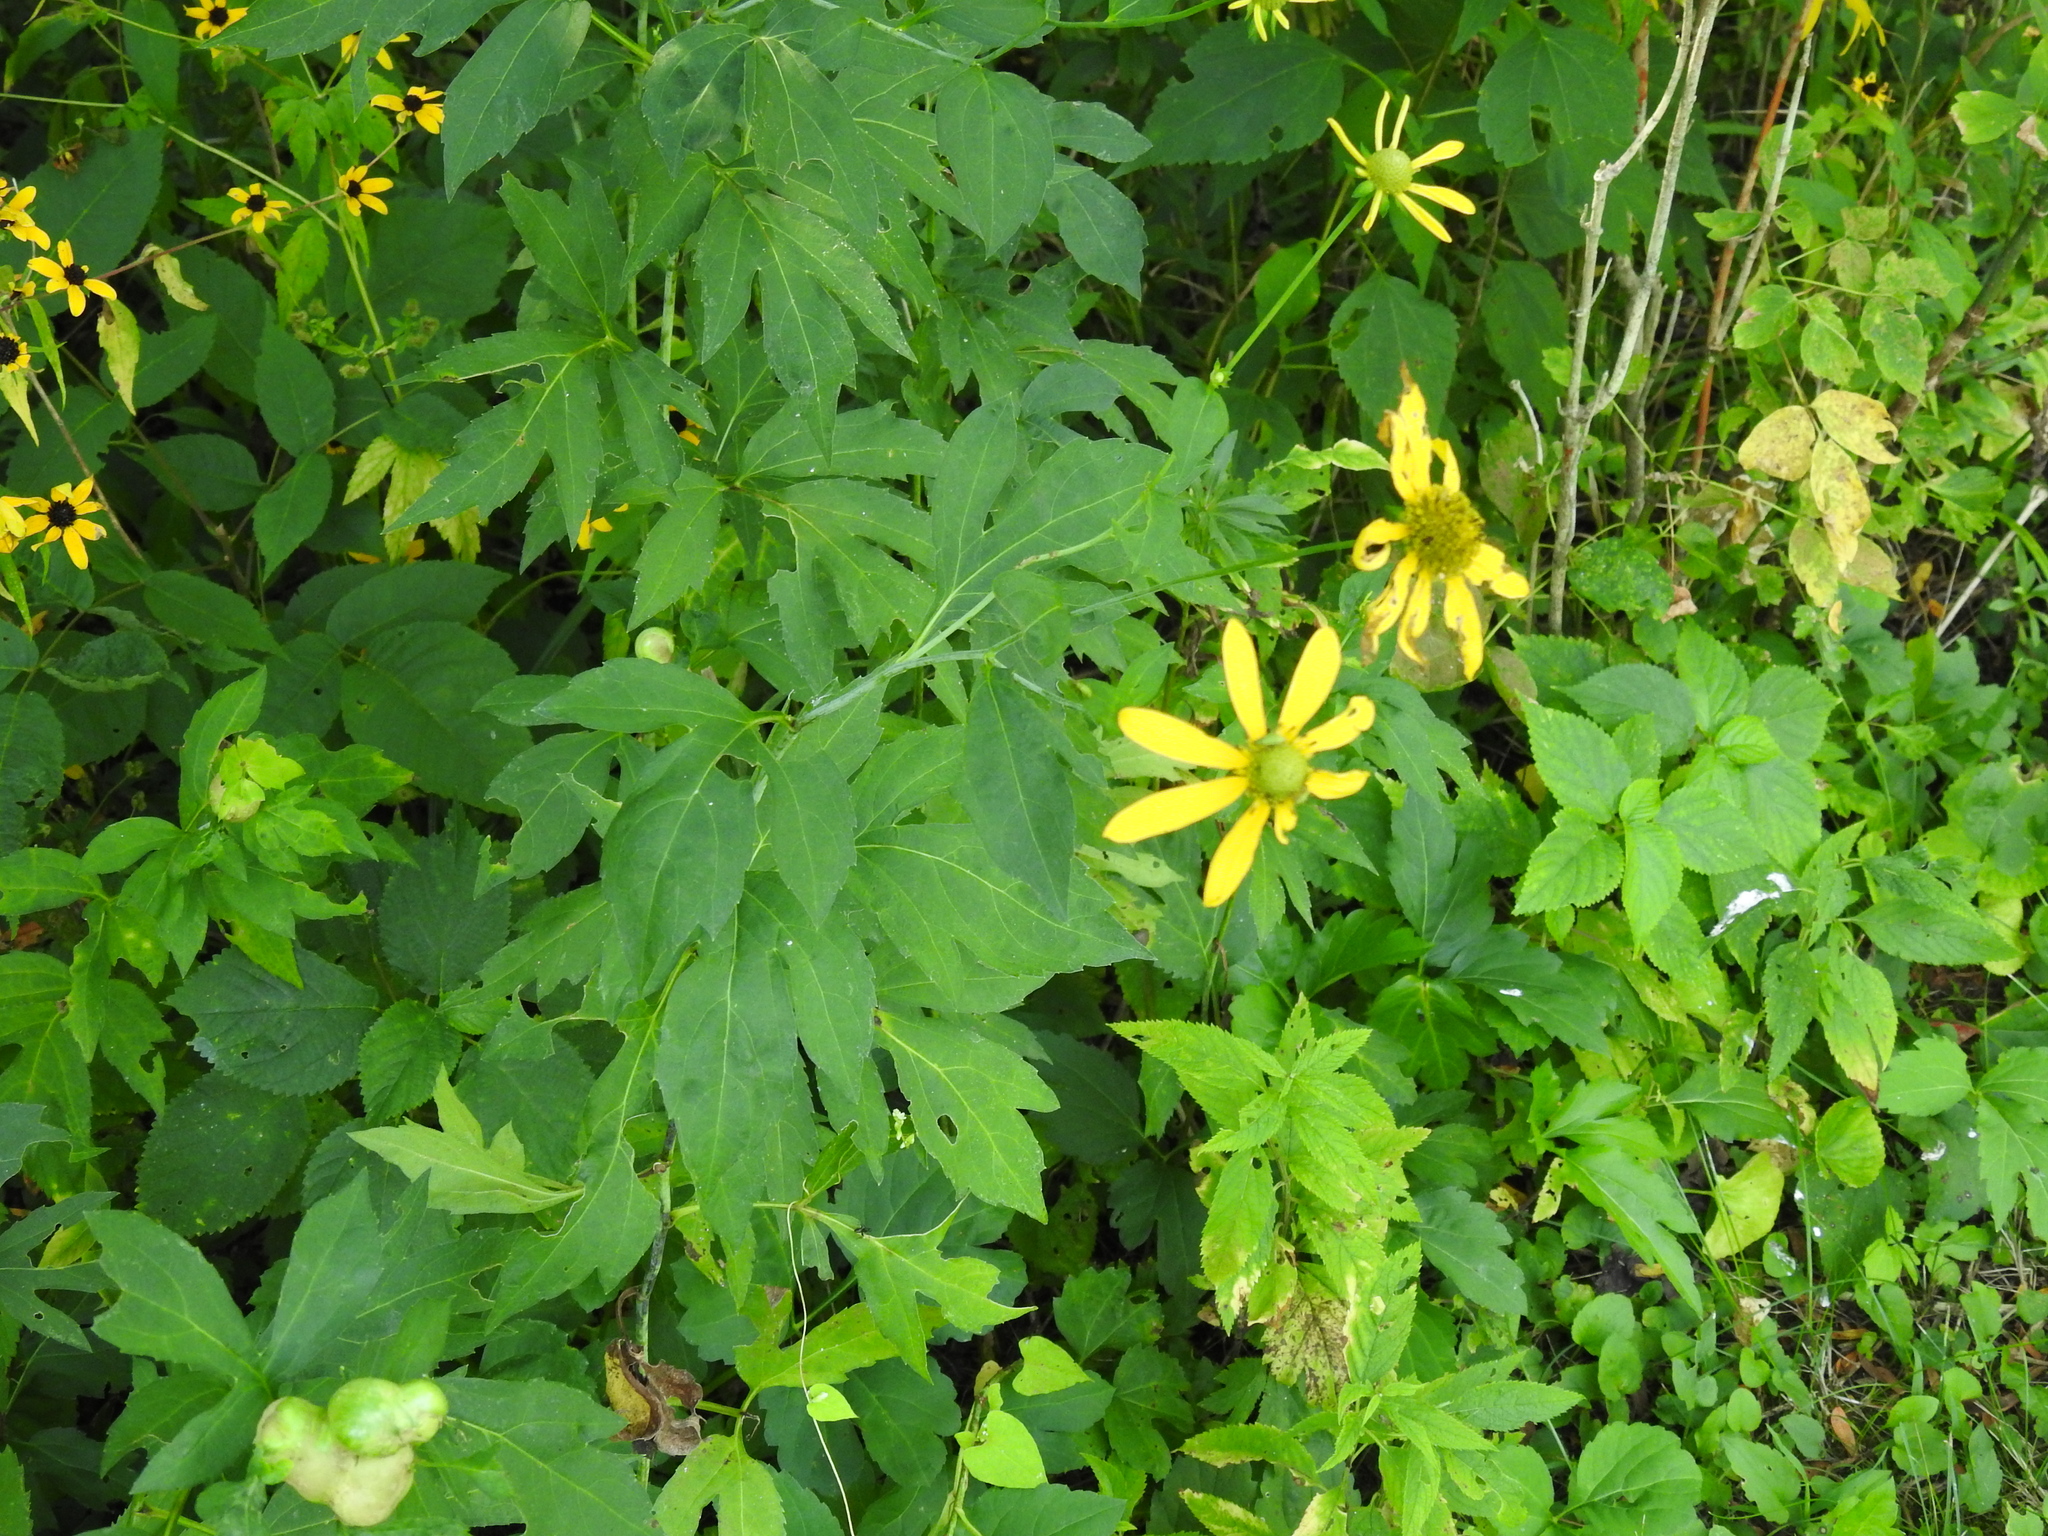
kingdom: Plantae
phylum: Tracheophyta
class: Magnoliopsida
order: Asterales
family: Asteraceae
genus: Rudbeckia
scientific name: Rudbeckia laciniata
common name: Coneflower
